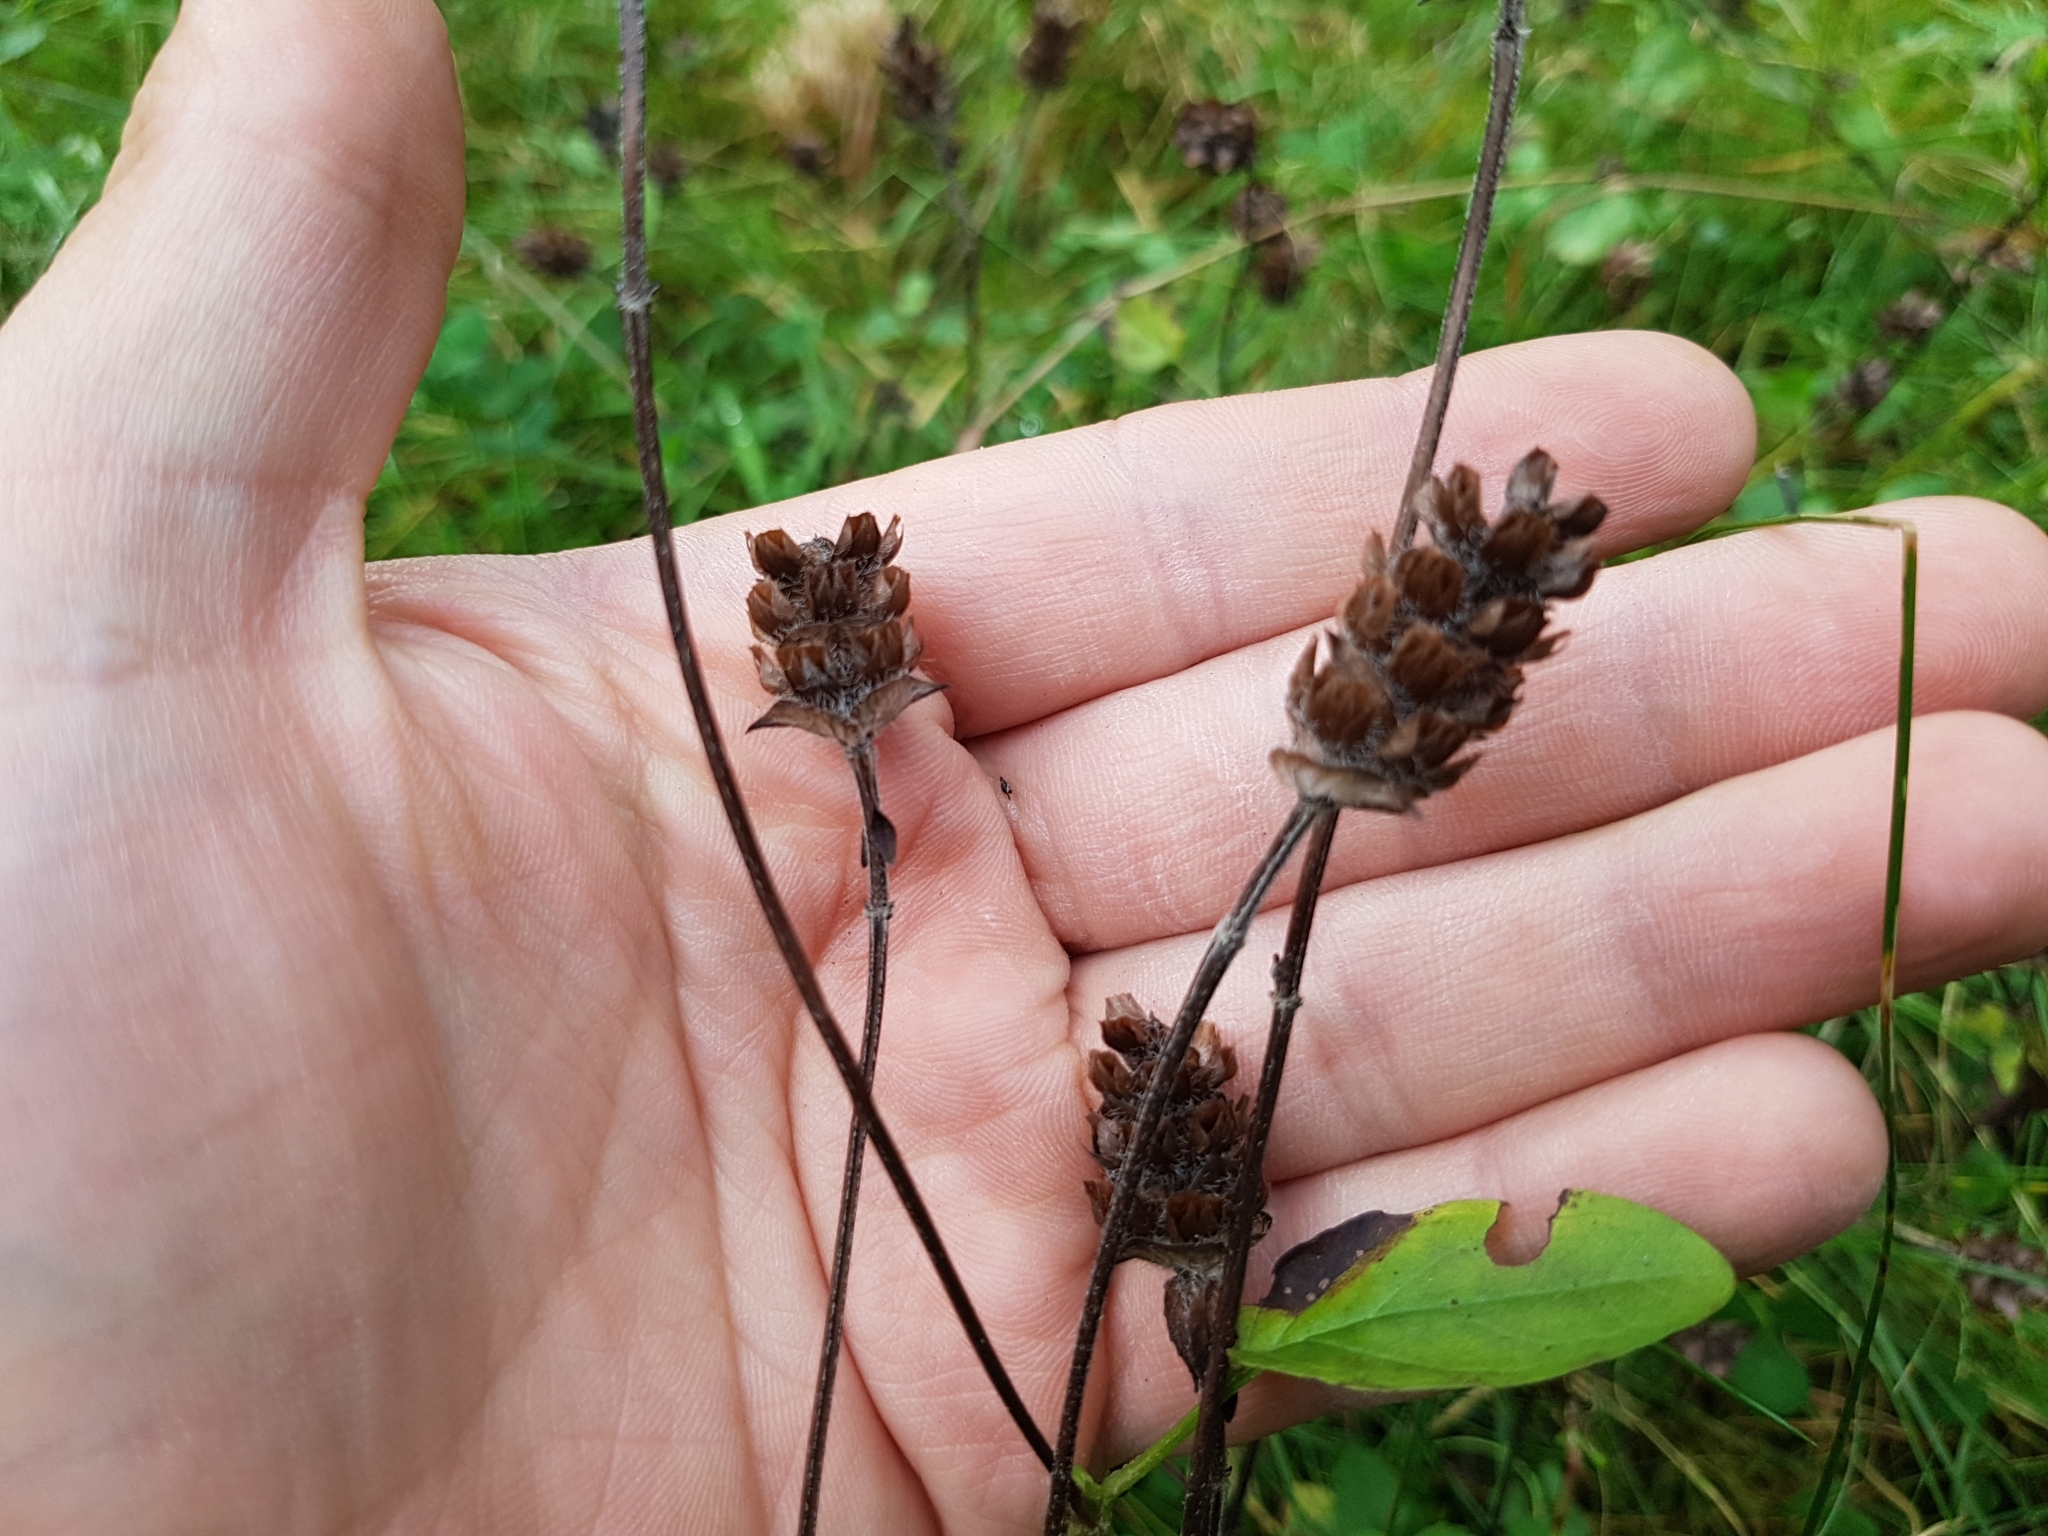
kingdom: Plantae
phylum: Tracheophyta
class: Magnoliopsida
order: Lamiales
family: Lamiaceae
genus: Prunella
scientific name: Prunella vulgaris
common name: Heal-all
